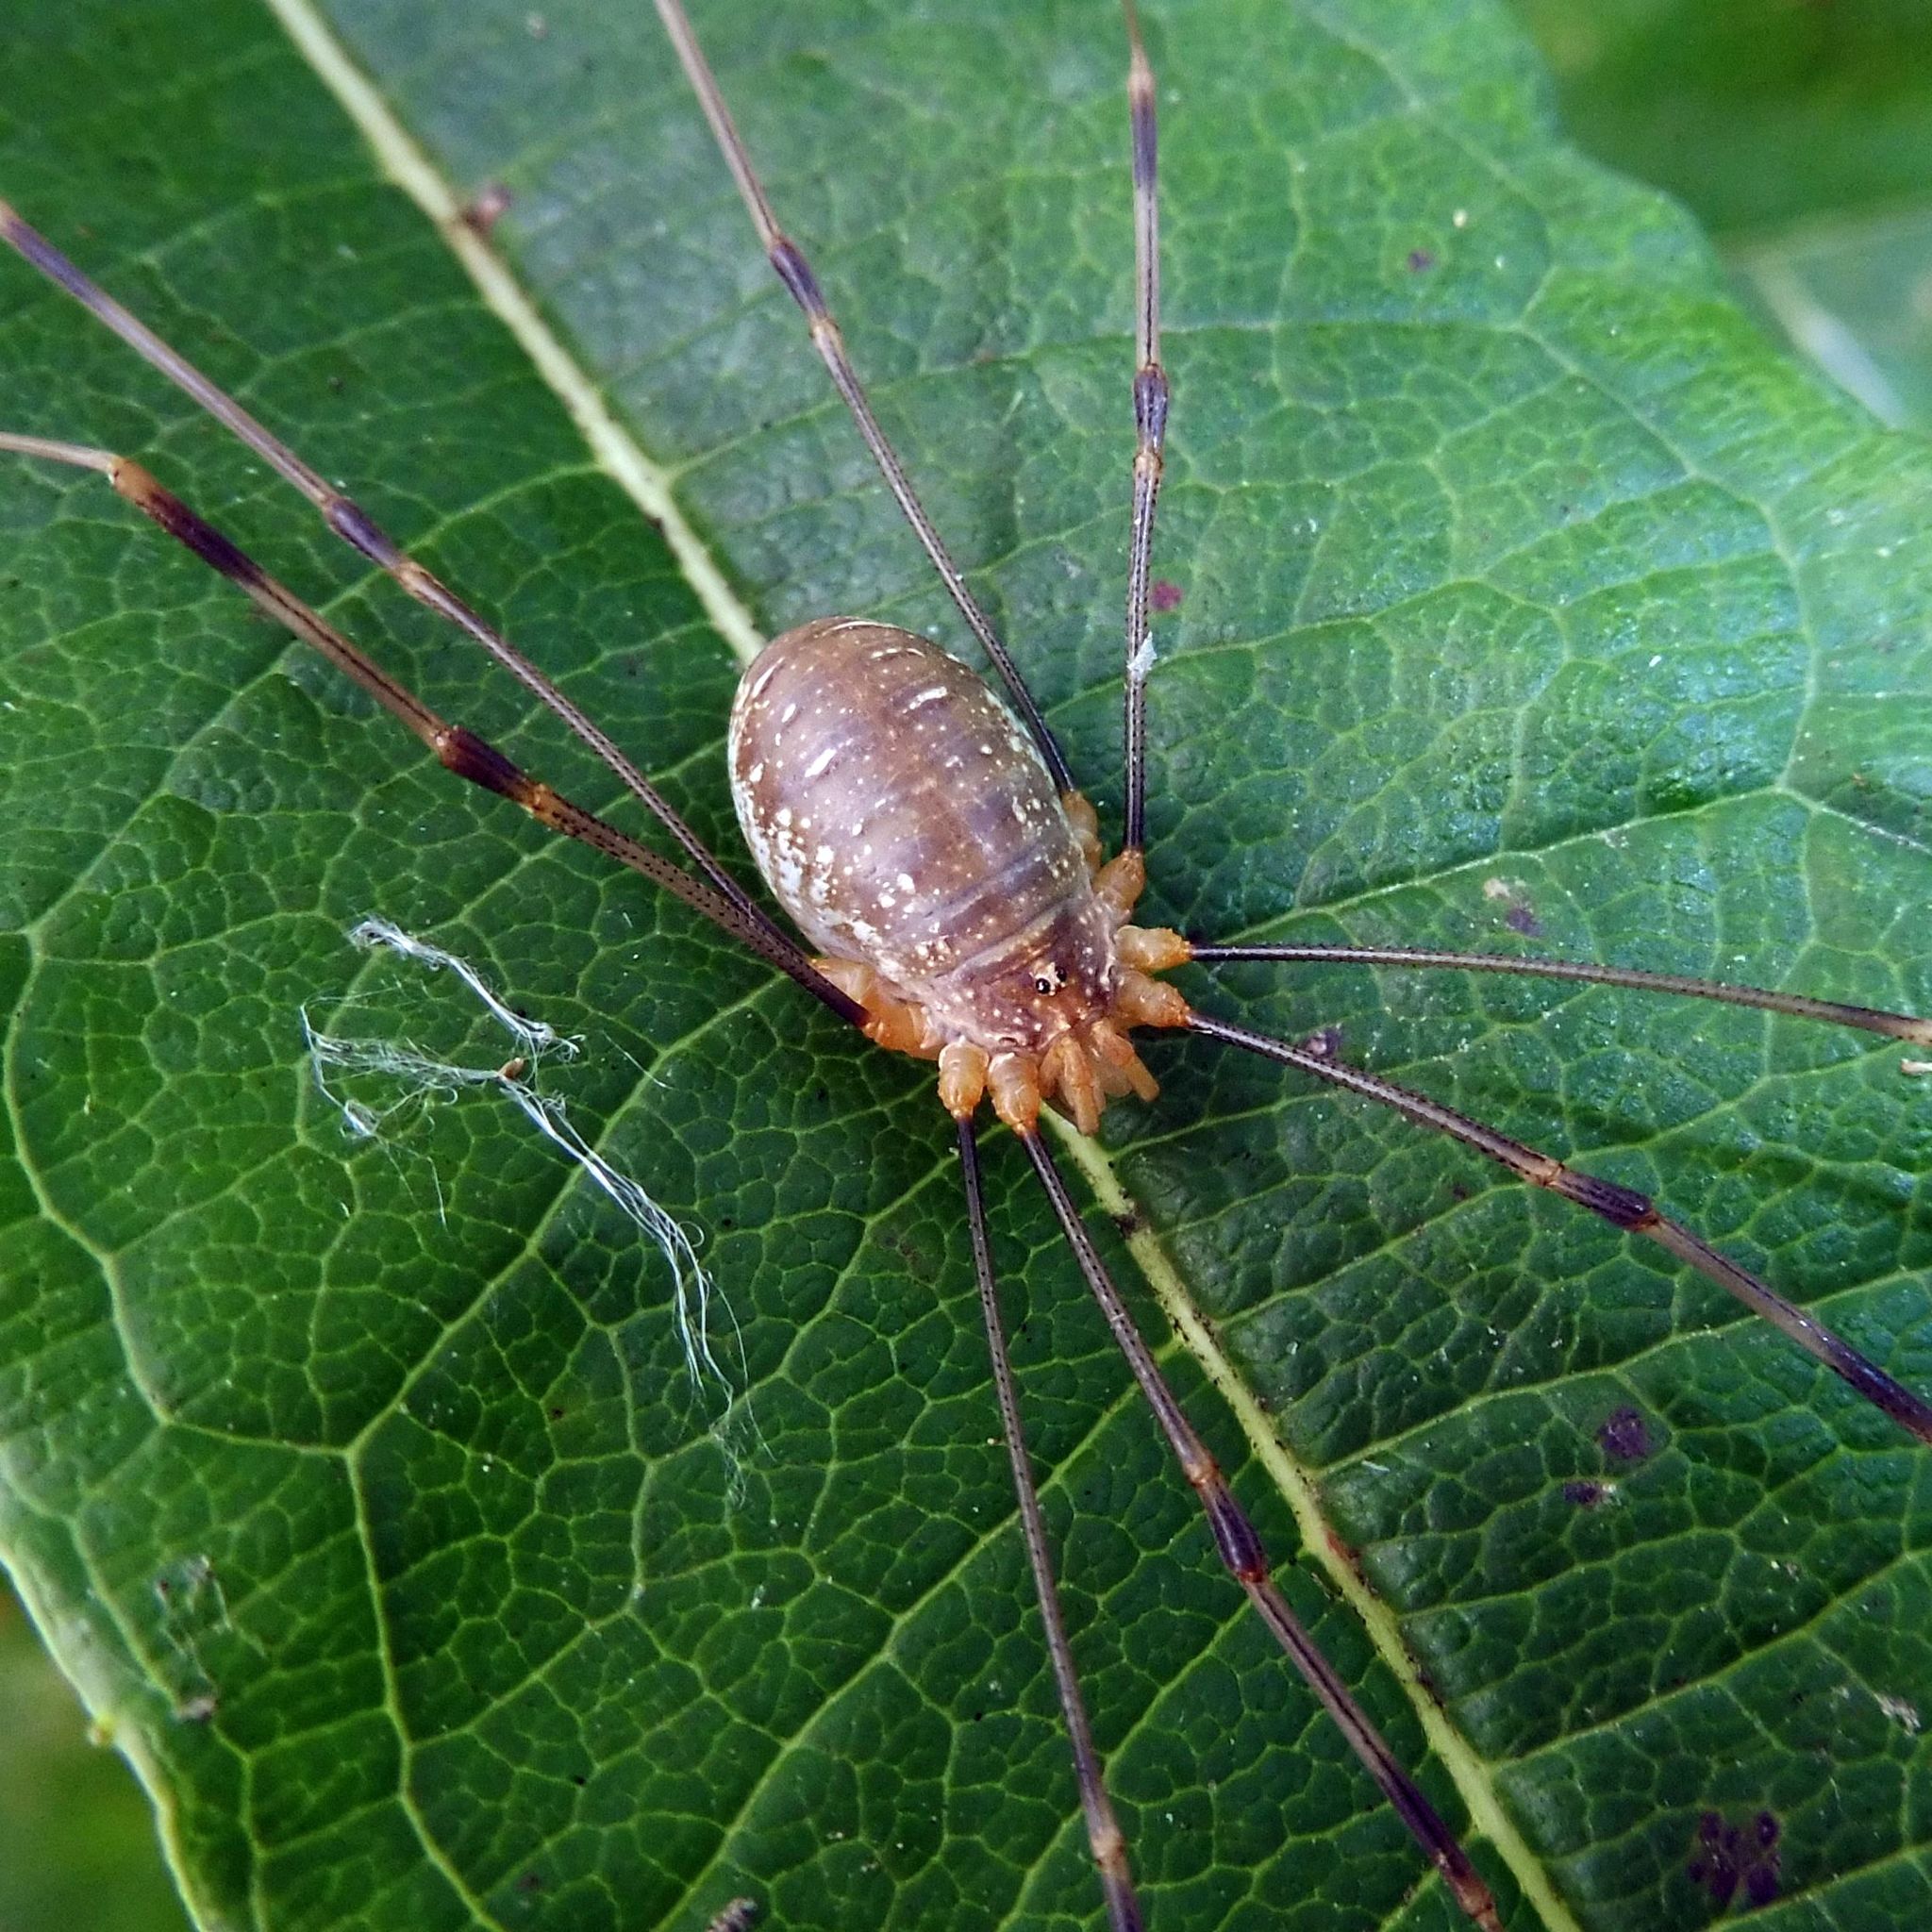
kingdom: Animalia
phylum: Arthropoda
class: Arachnida
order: Opiliones
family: Phalangiidae
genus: Opilio
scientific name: Opilio canestrinii
